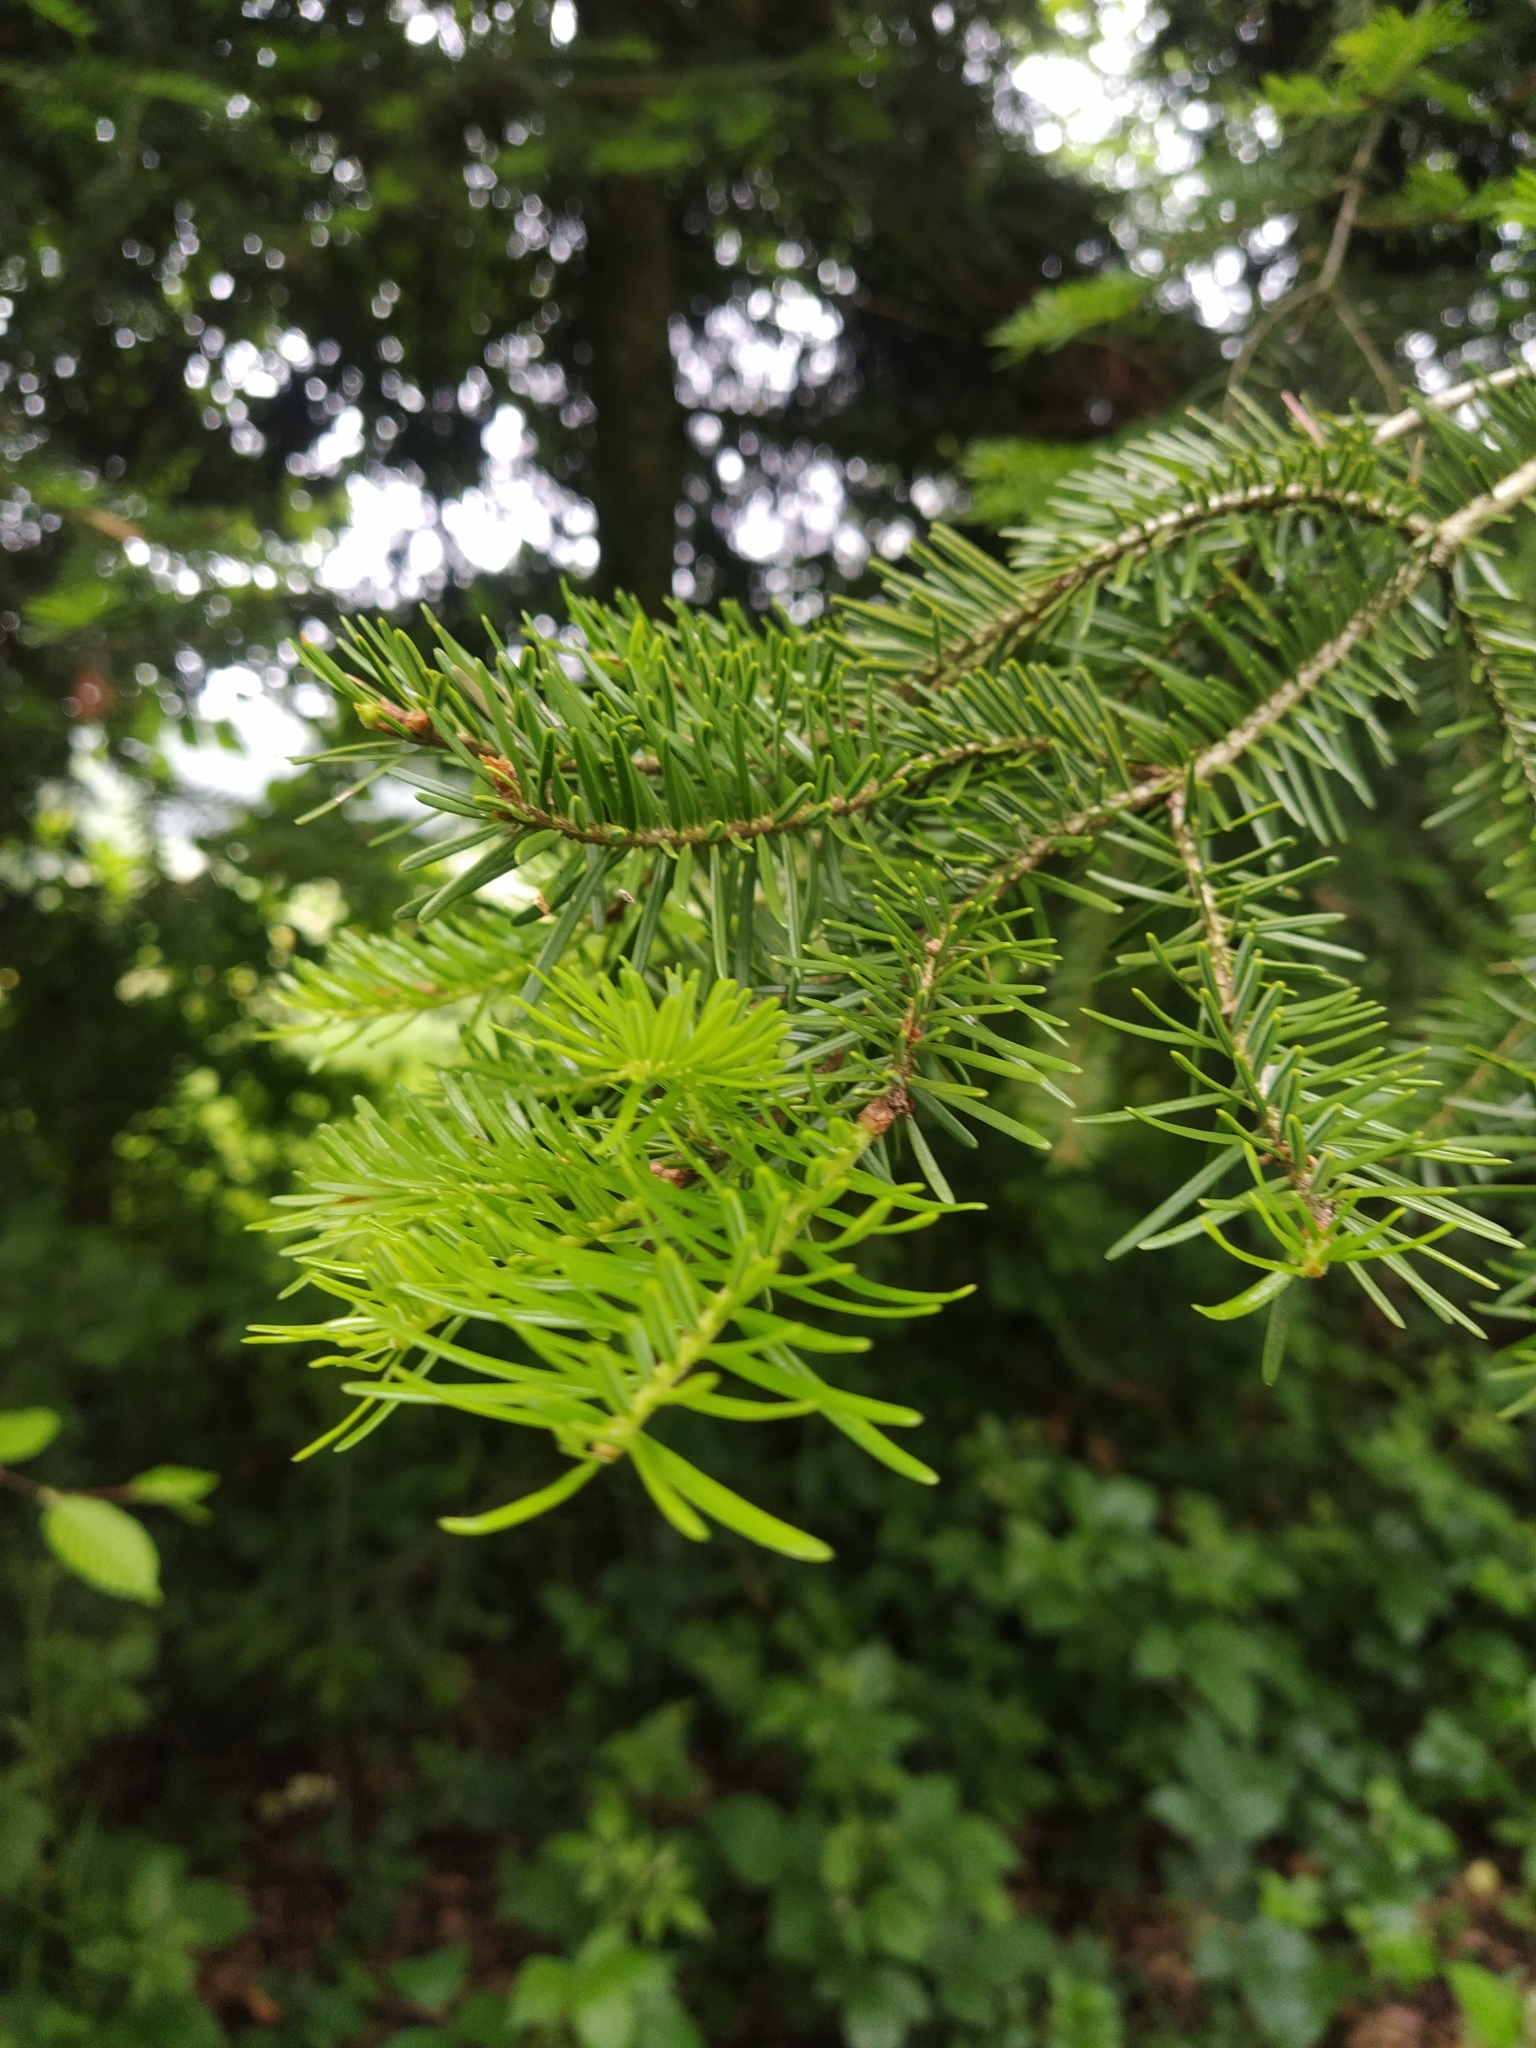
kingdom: Plantae
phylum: Tracheophyta
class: Pinopsida
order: Pinales
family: Pinaceae
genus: Pseudotsuga
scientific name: Pseudotsuga menziesii
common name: Douglas fir
